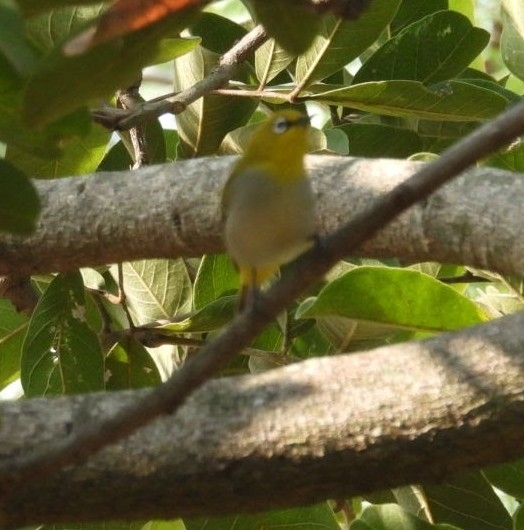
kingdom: Animalia
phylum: Chordata
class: Aves
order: Passeriformes
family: Zosteropidae
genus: Zosterops
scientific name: Zosterops palpebrosus
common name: Oriental white-eye
